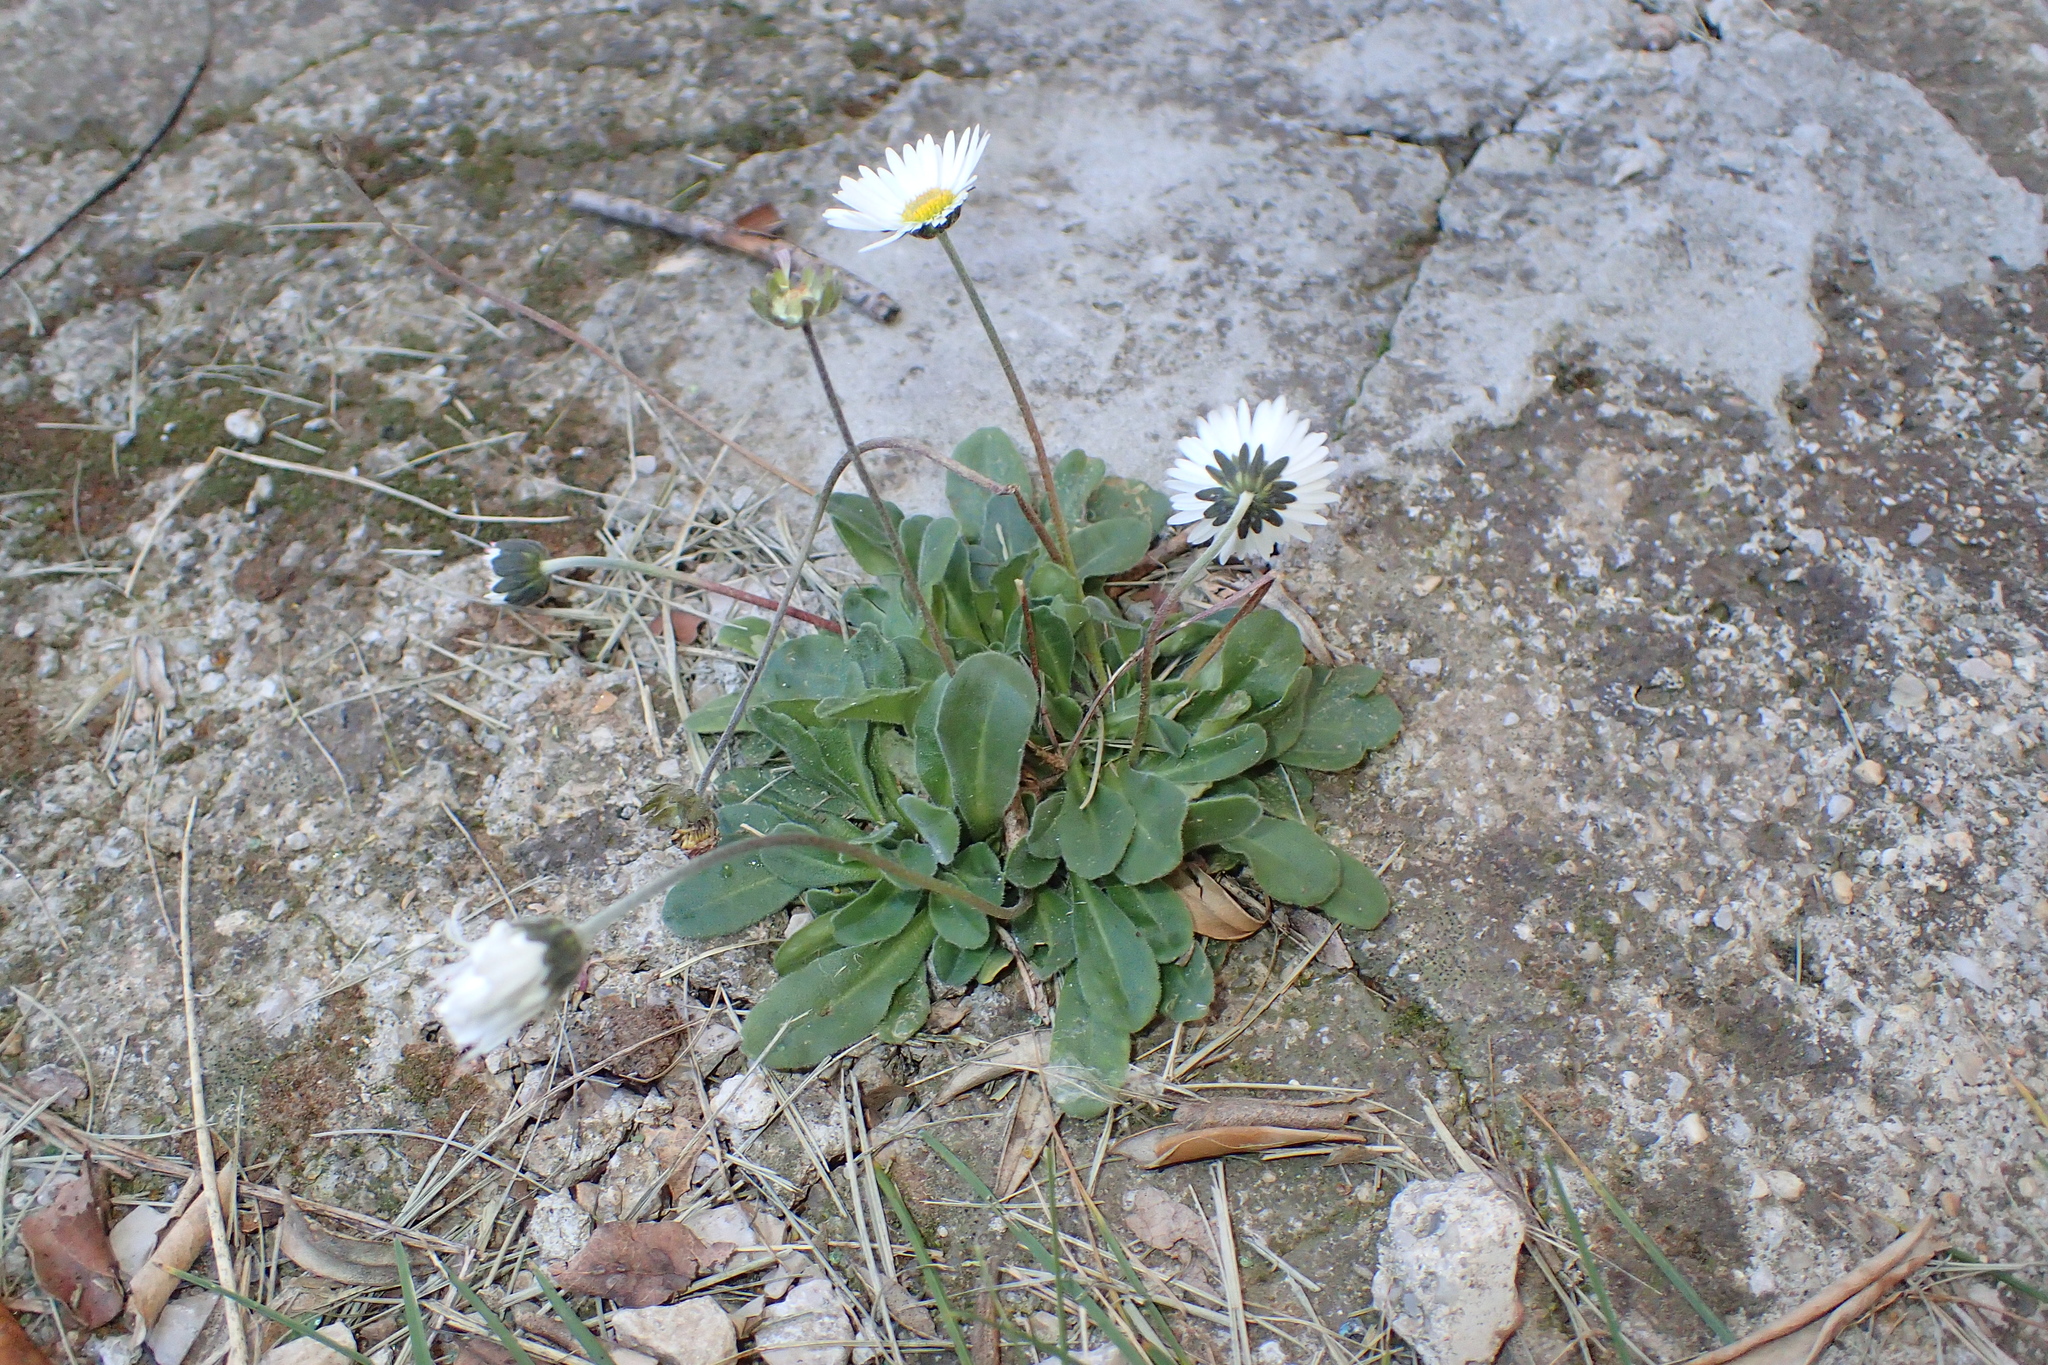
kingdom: Plantae
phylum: Tracheophyta
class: Magnoliopsida
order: Asterales
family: Asteraceae
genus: Bellis
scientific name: Bellis perennis
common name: Lawndaisy
